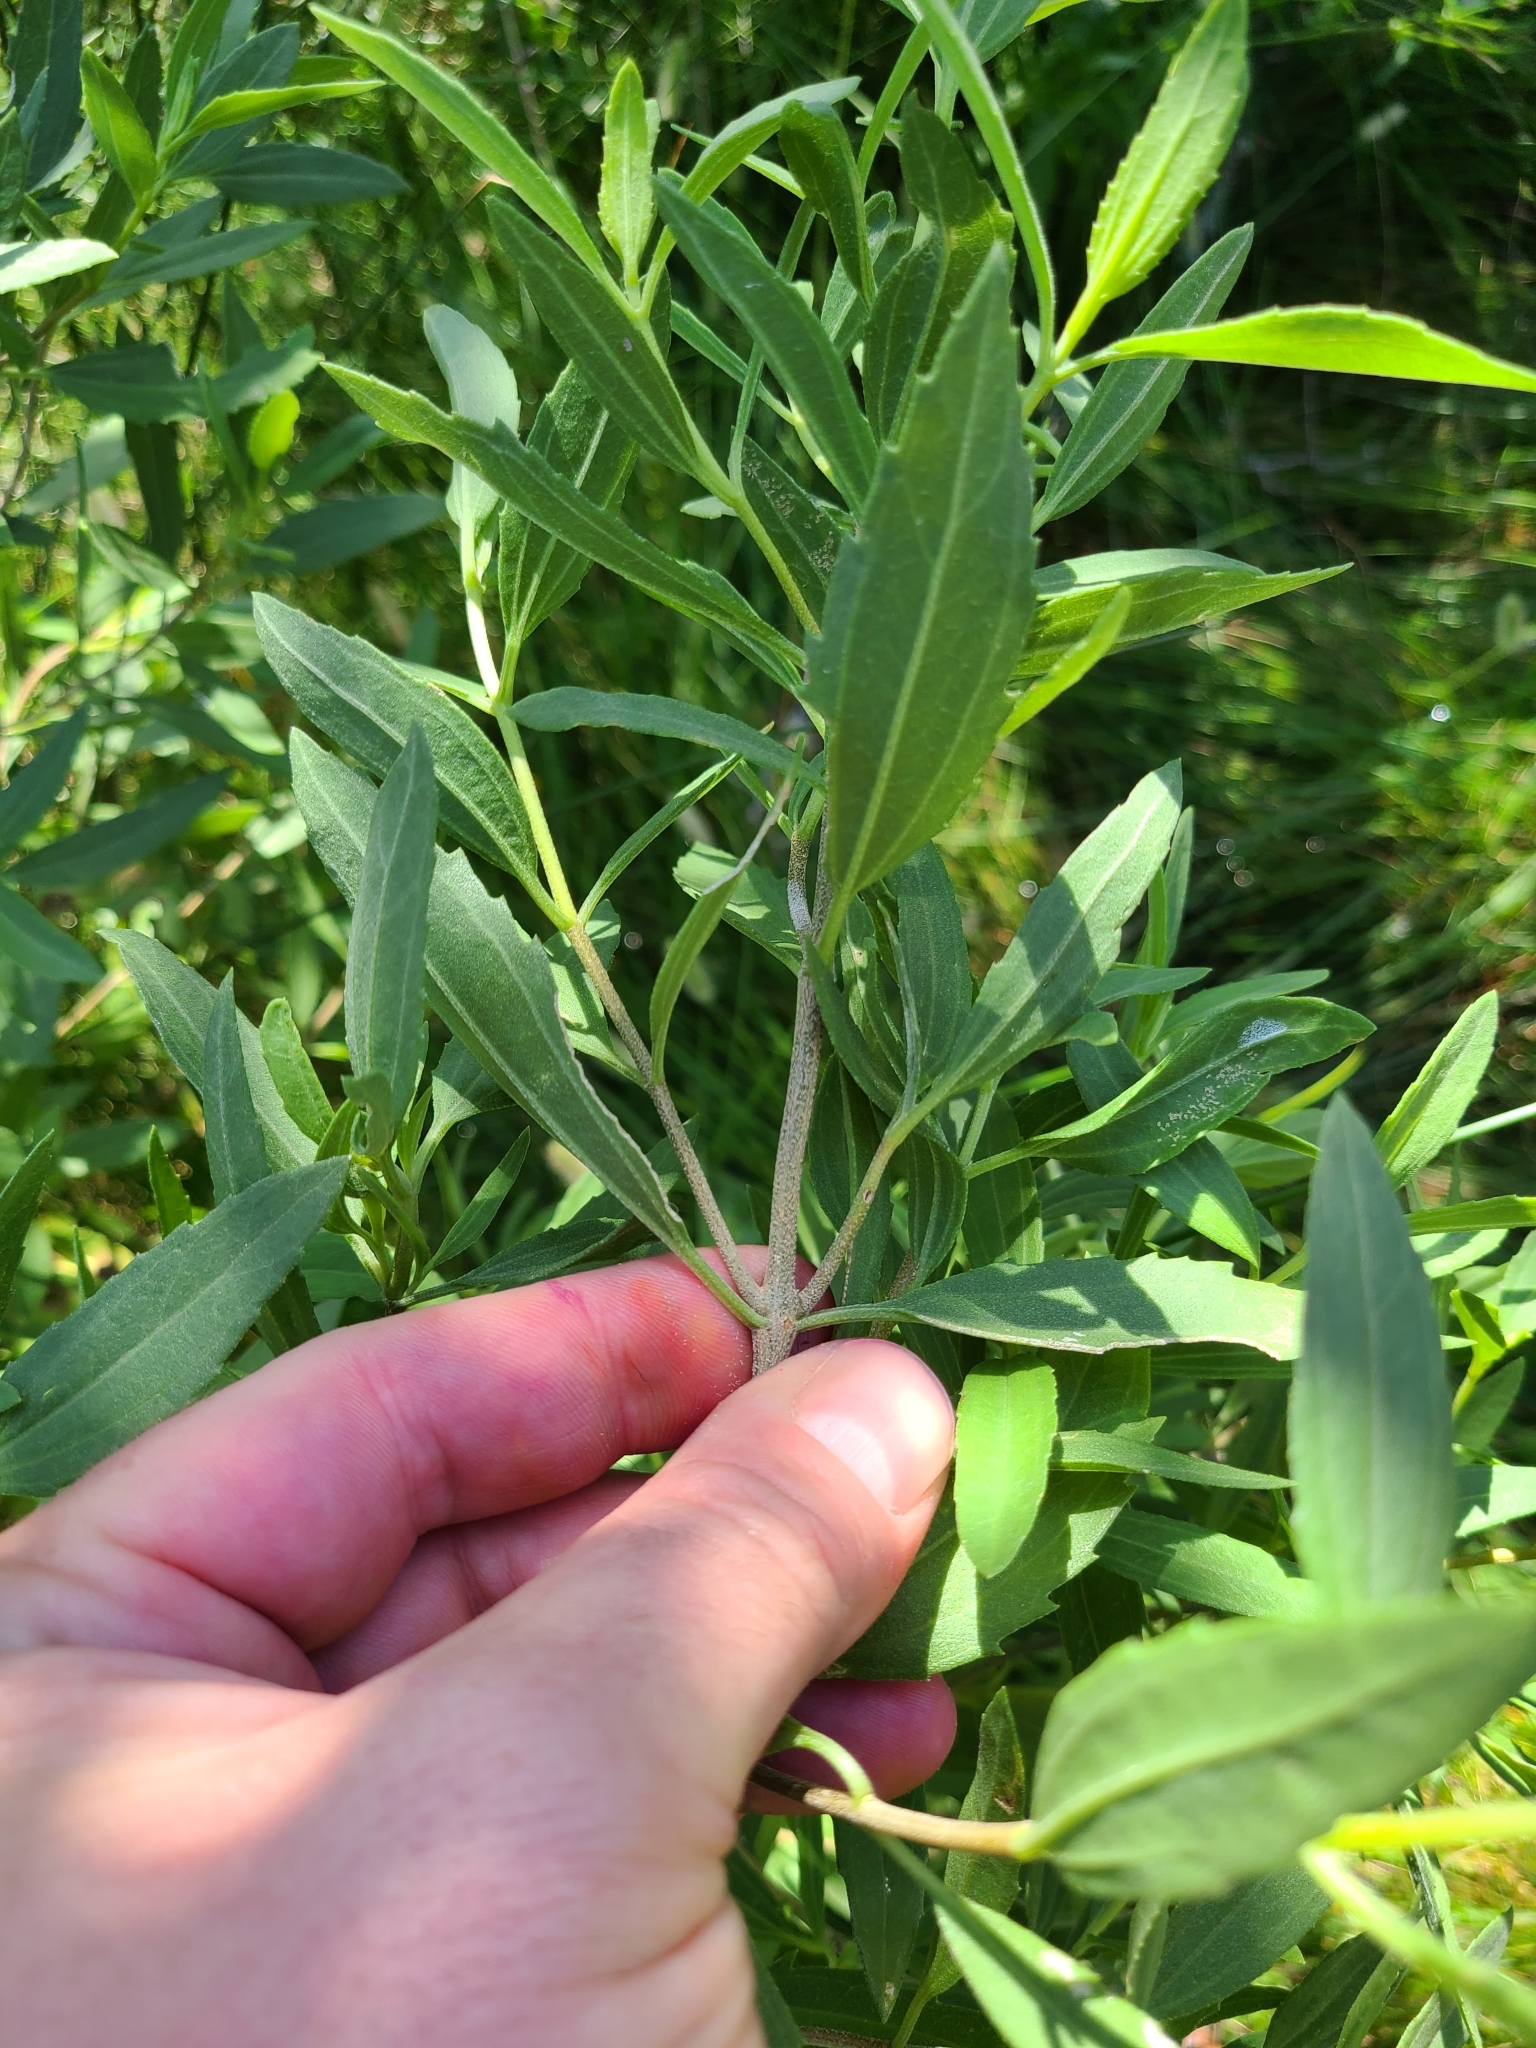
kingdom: Plantae
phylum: Tracheophyta
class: Magnoliopsida
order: Asterales
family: Asteraceae
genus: Iva
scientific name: Iva frutescens
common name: Big-leaved marsh-elder
